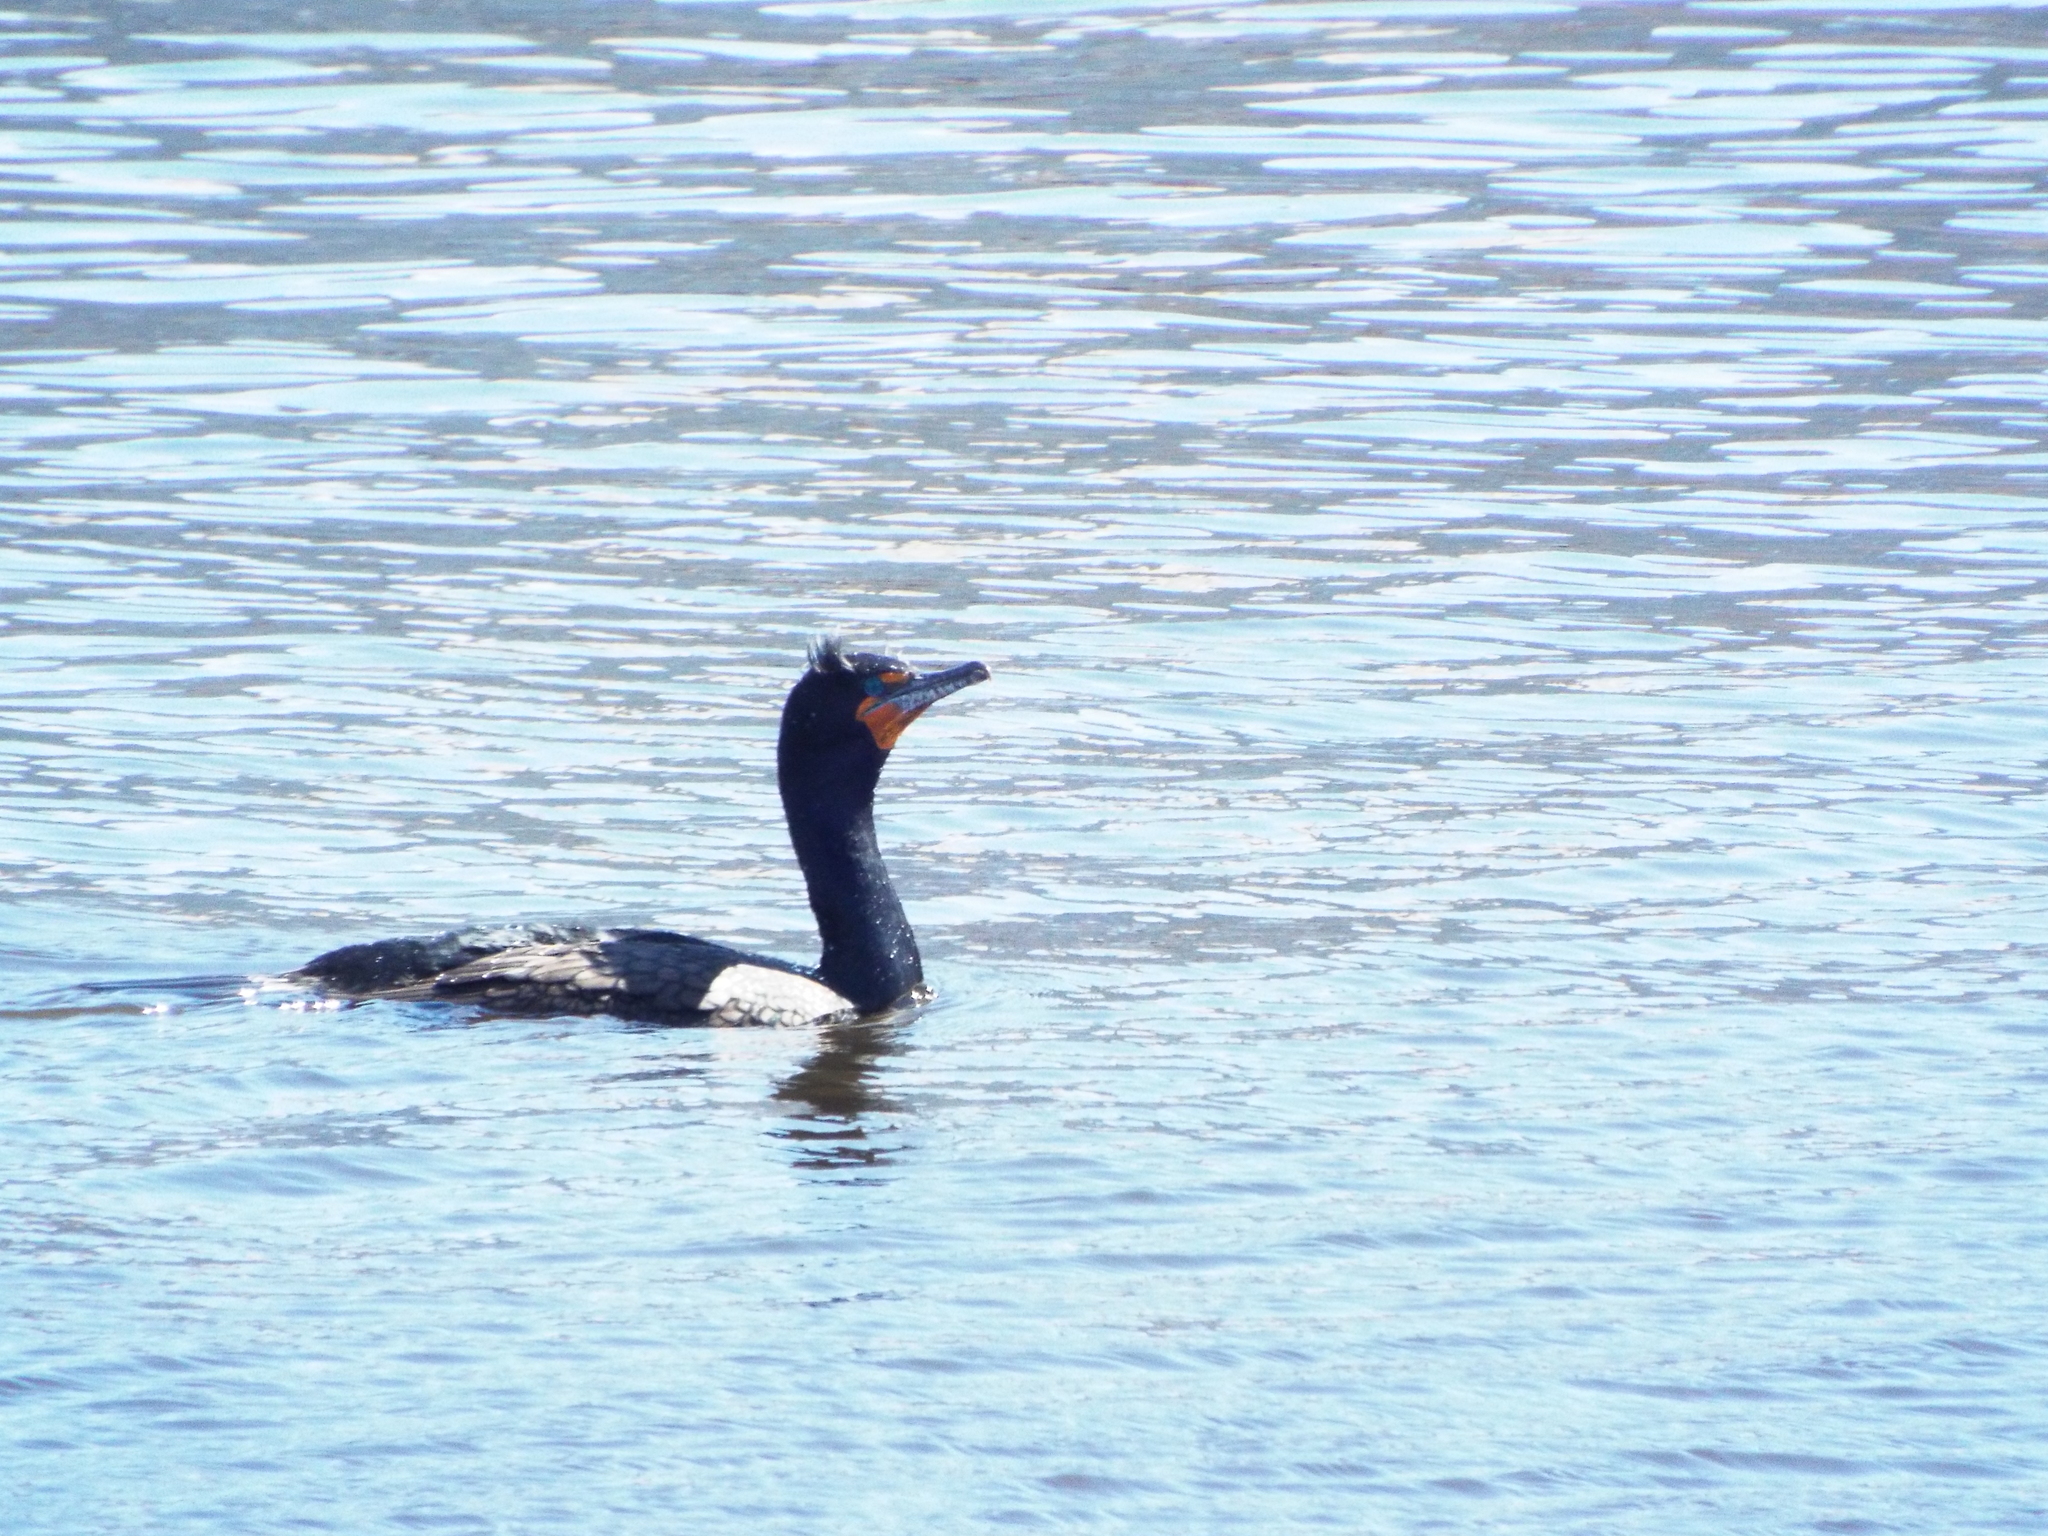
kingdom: Animalia
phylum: Chordata
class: Aves
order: Suliformes
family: Phalacrocoracidae
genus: Phalacrocorax
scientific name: Phalacrocorax auritus
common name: Double-crested cormorant
